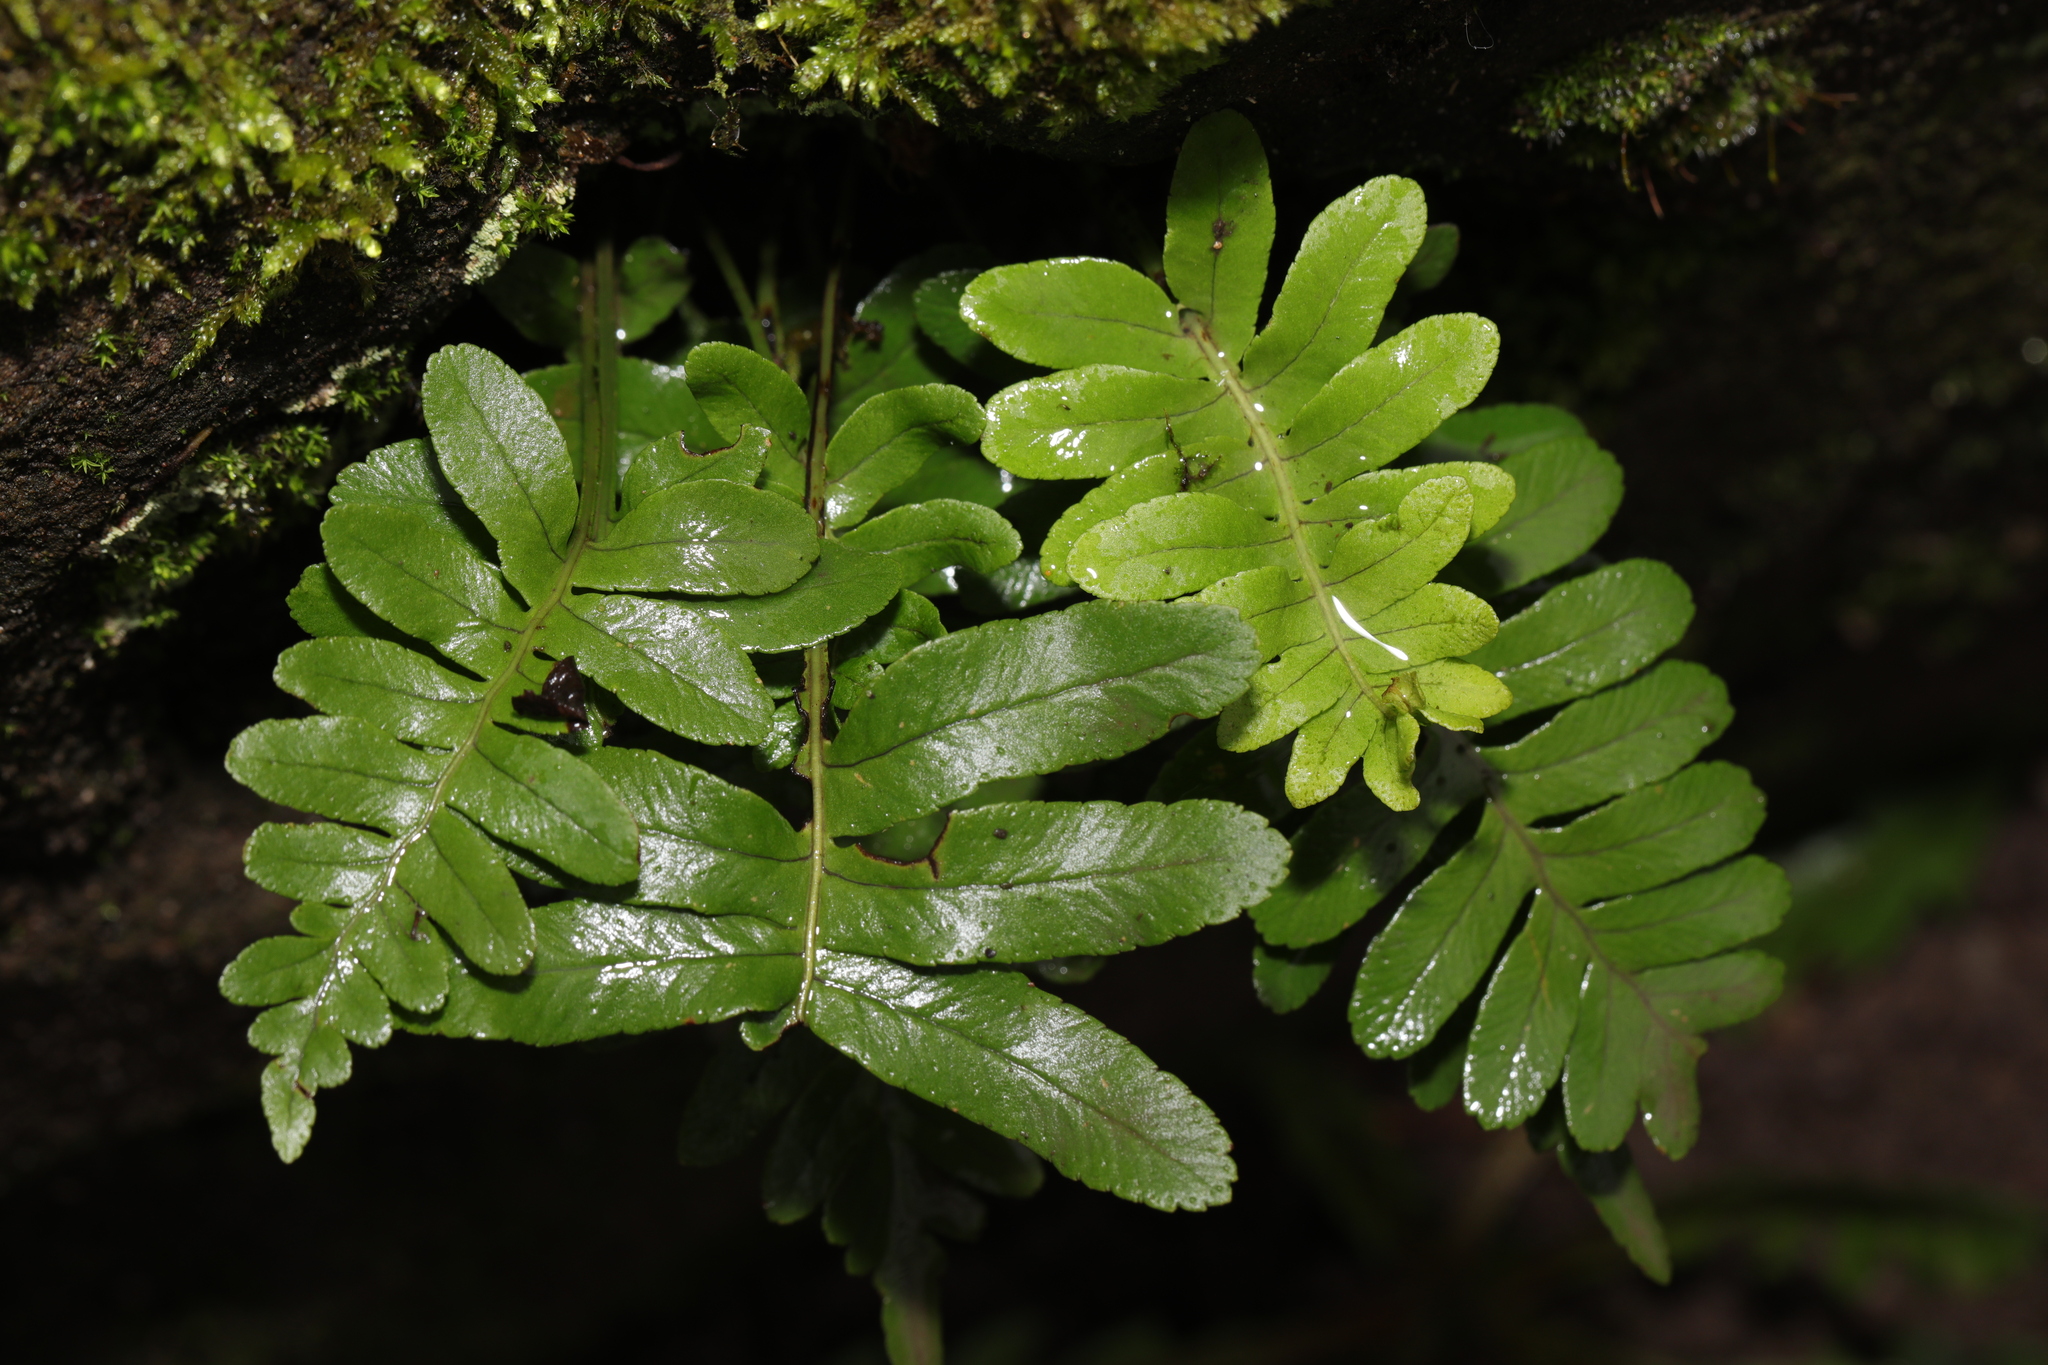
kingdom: Plantae
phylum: Tracheophyta
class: Polypodiopsida
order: Polypodiales
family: Polypodiaceae
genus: Polypodium
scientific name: Polypodium vulgare
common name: Common polypody
